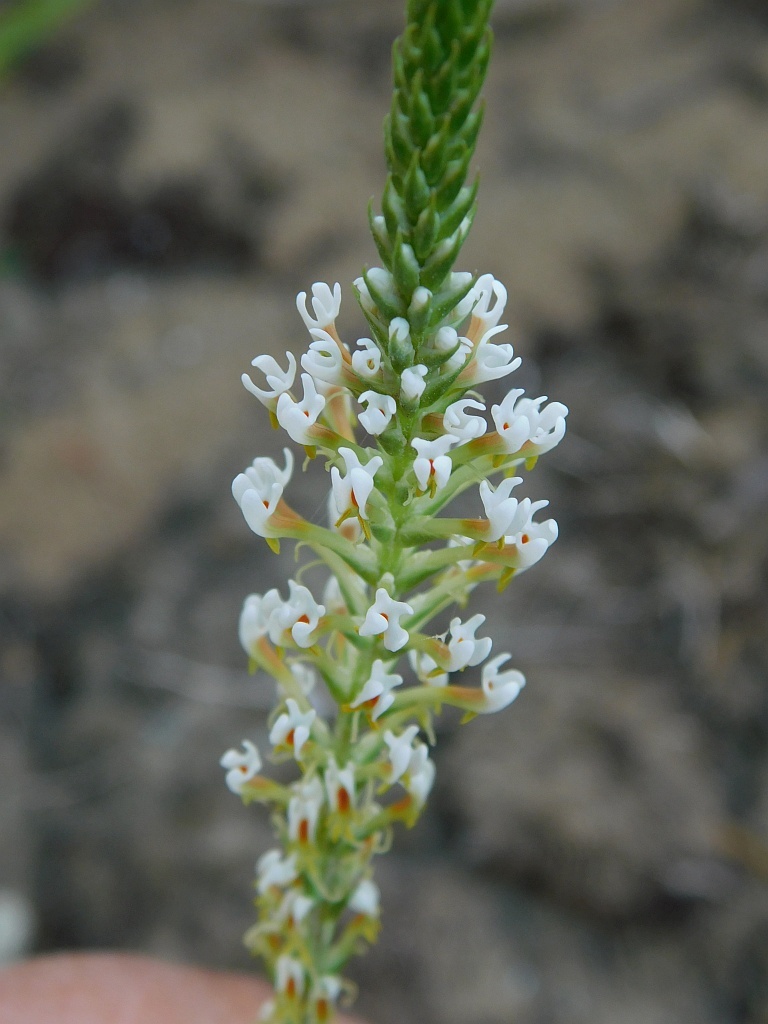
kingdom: Plantae
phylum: Tracheophyta
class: Magnoliopsida
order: Lamiales
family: Scrophulariaceae
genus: Hebenstretia
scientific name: Hebenstretia integrifolia
